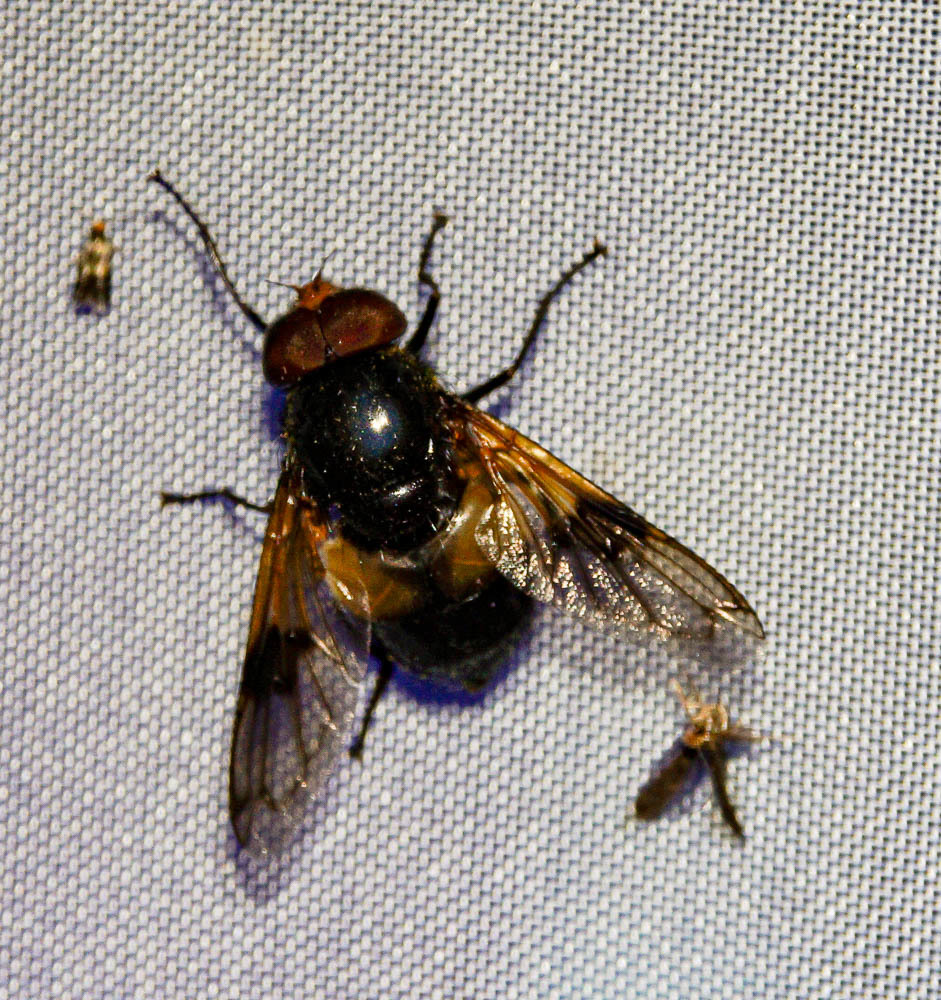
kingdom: Animalia
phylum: Arthropoda
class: Insecta
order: Diptera
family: Syrphidae
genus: Volucella
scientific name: Volucella pellucens
